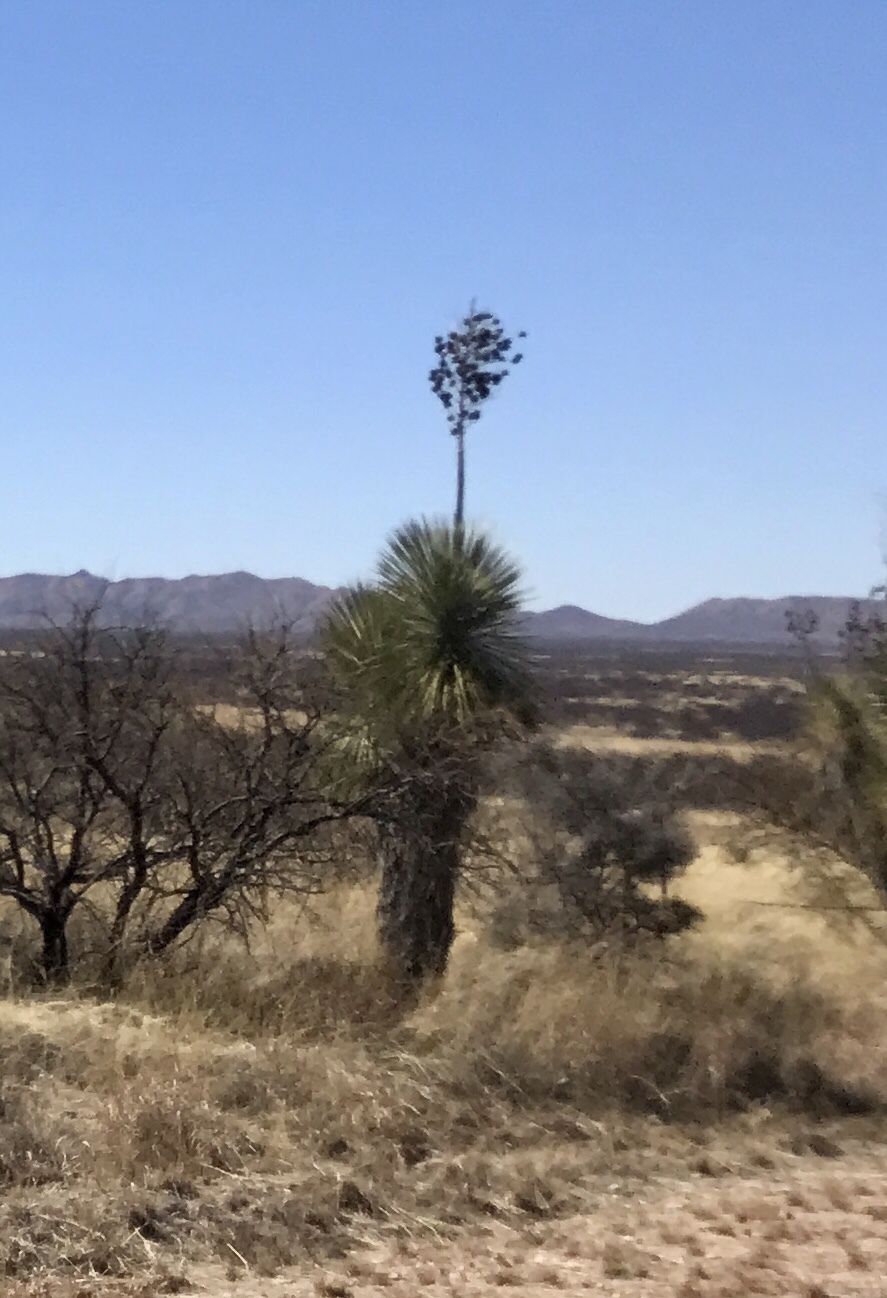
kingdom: Plantae
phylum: Tracheophyta
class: Liliopsida
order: Asparagales
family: Asparagaceae
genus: Yucca
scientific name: Yucca elata
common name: Palmella
